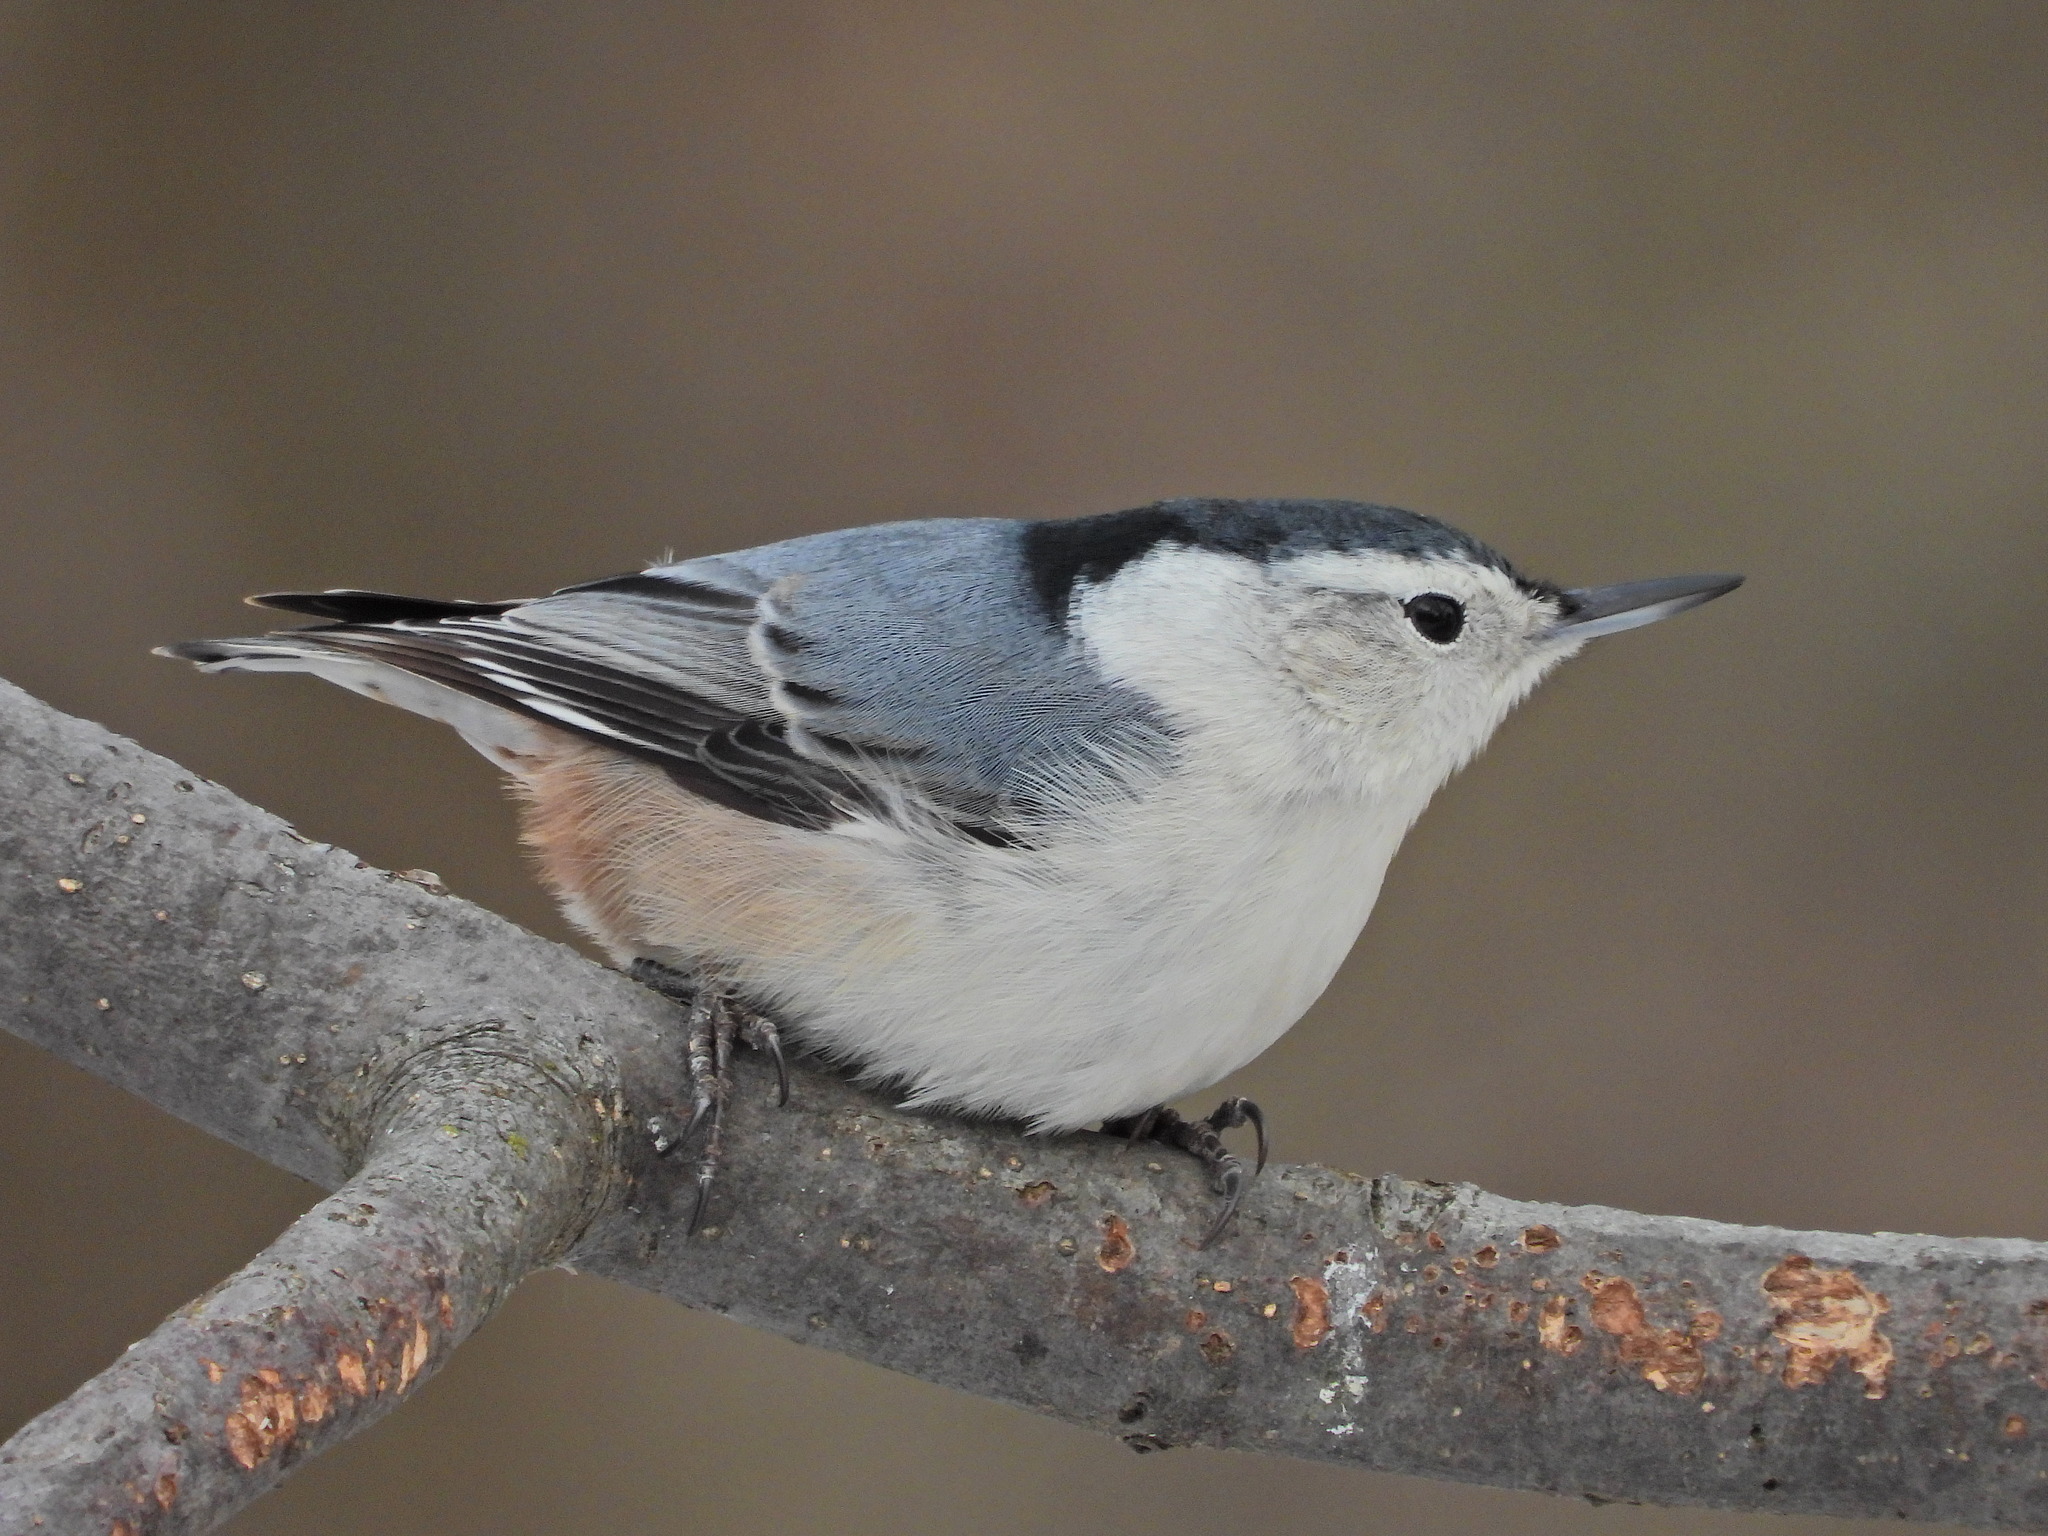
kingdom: Animalia
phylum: Chordata
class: Aves
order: Passeriformes
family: Sittidae
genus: Sitta
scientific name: Sitta carolinensis
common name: White-breasted nuthatch
